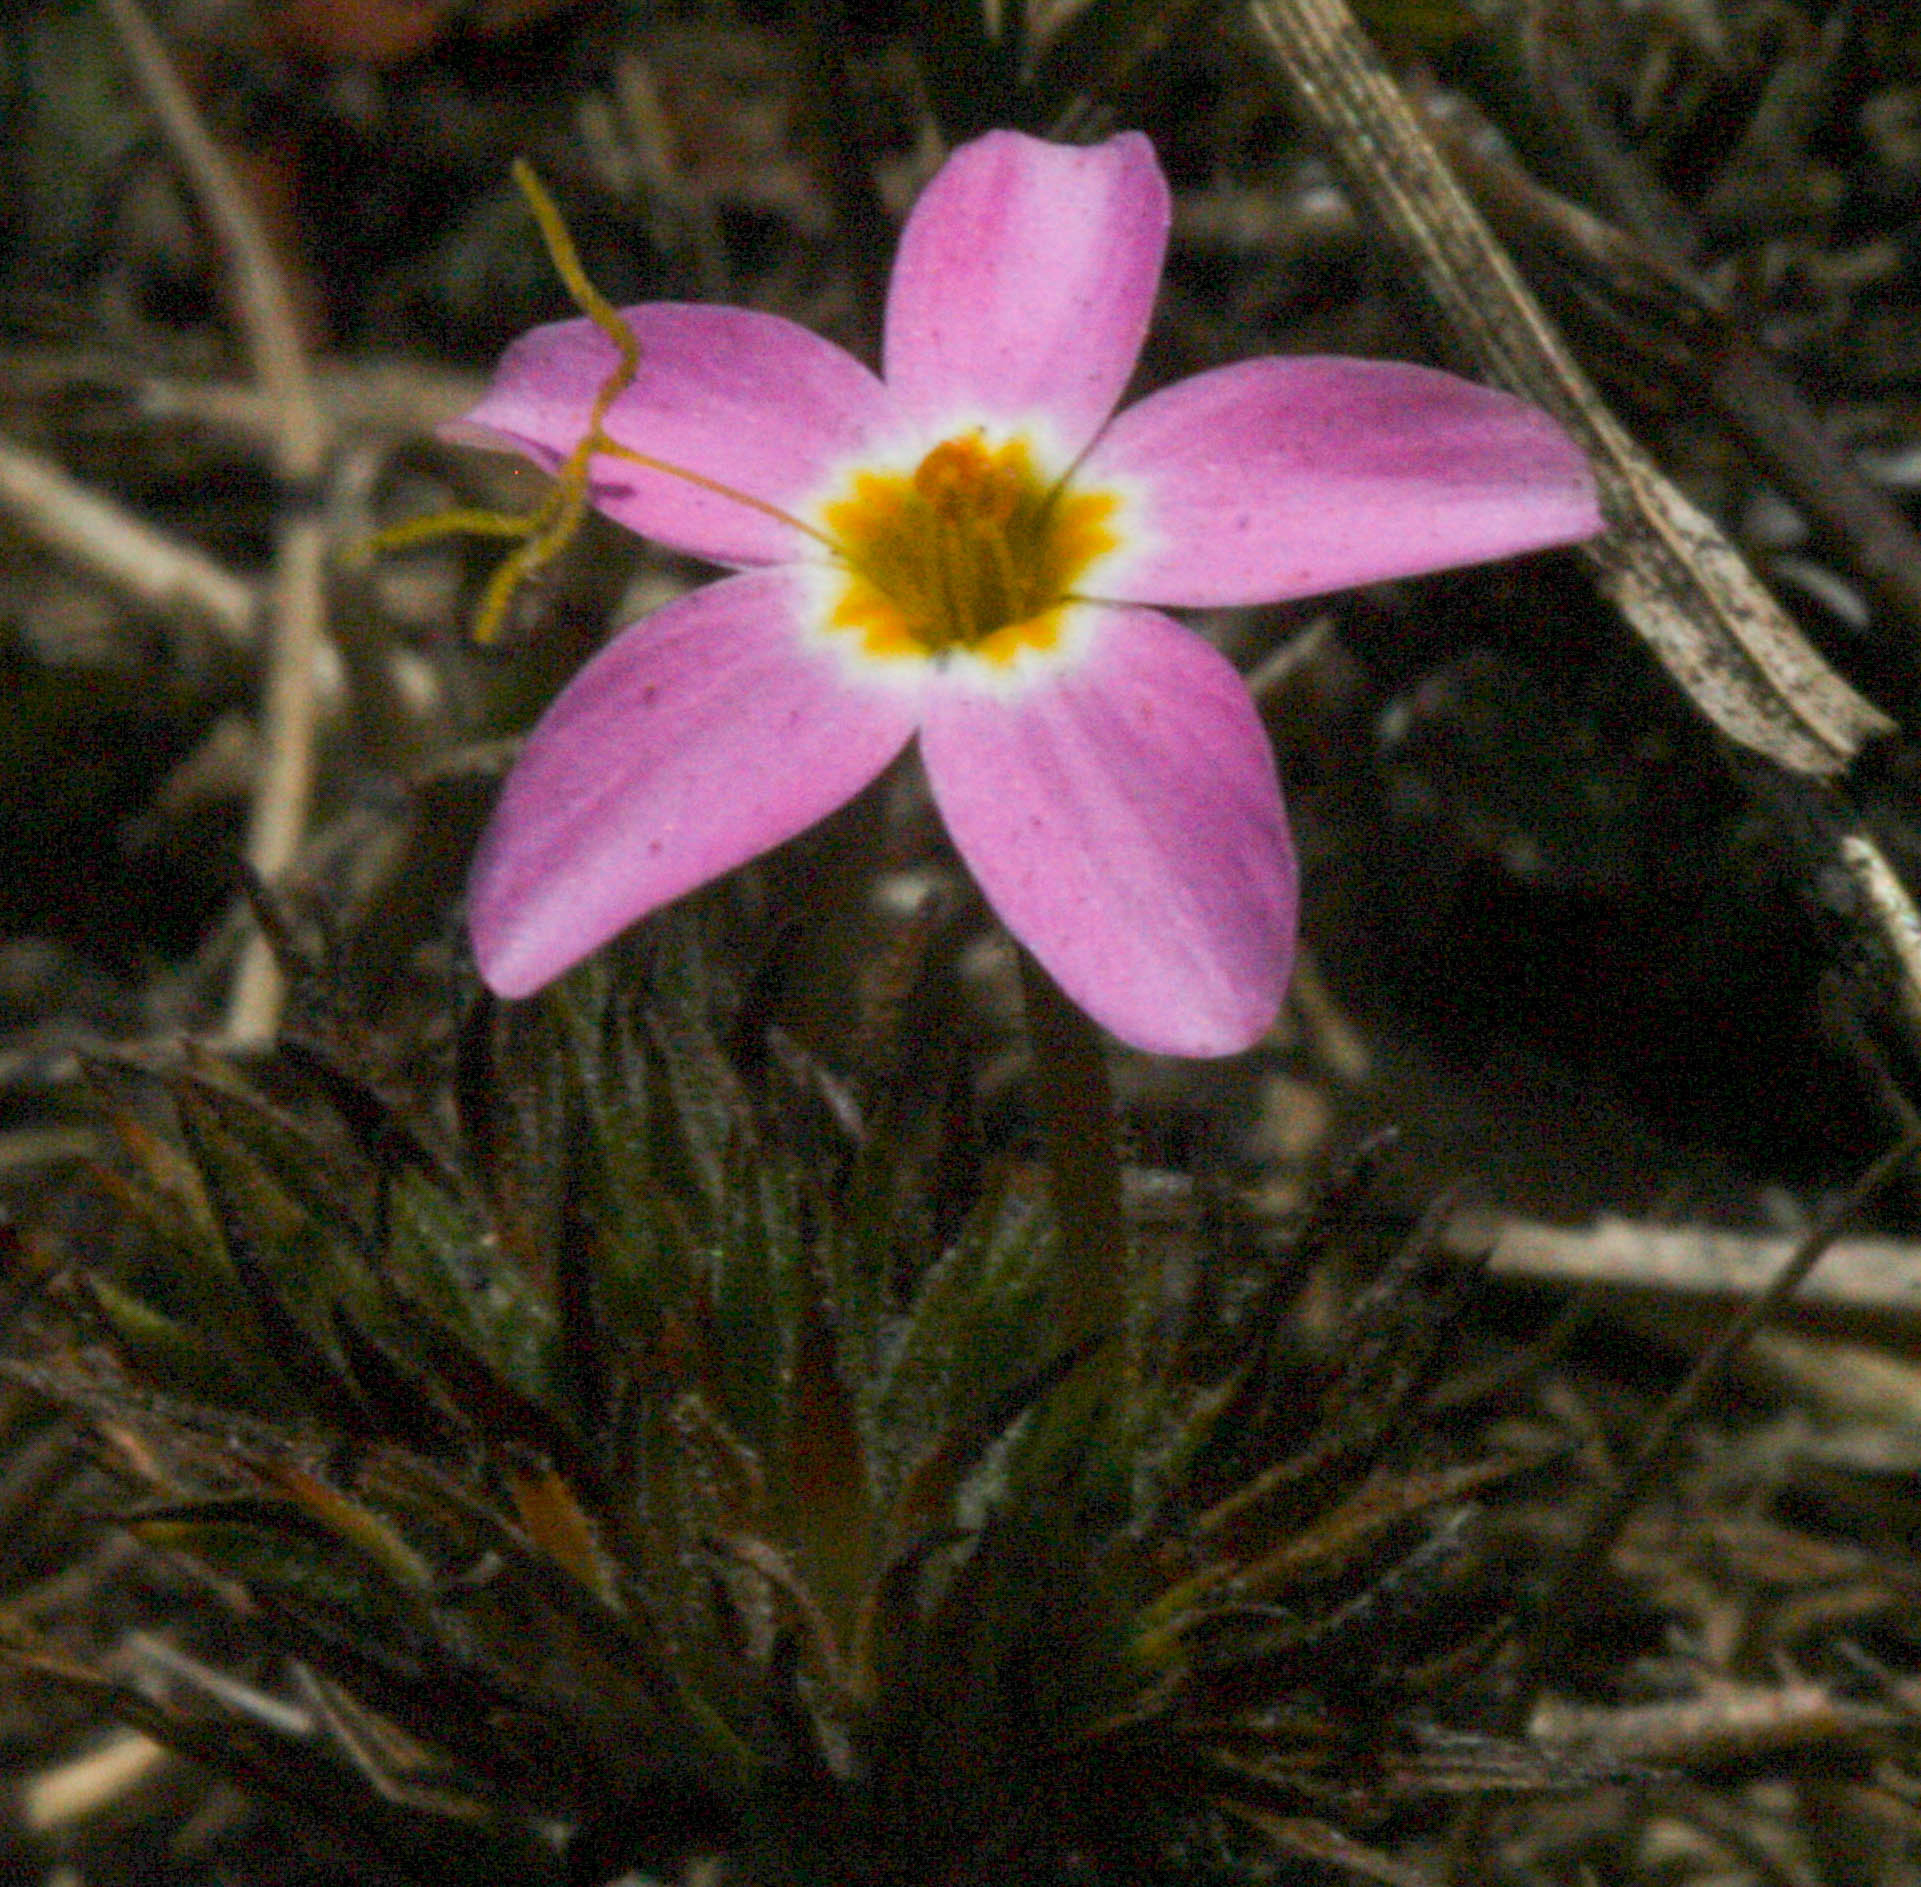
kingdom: Plantae
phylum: Tracheophyta
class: Magnoliopsida
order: Ericales
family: Polemoniaceae
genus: Leptosiphon
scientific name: Leptosiphon parviflorus
